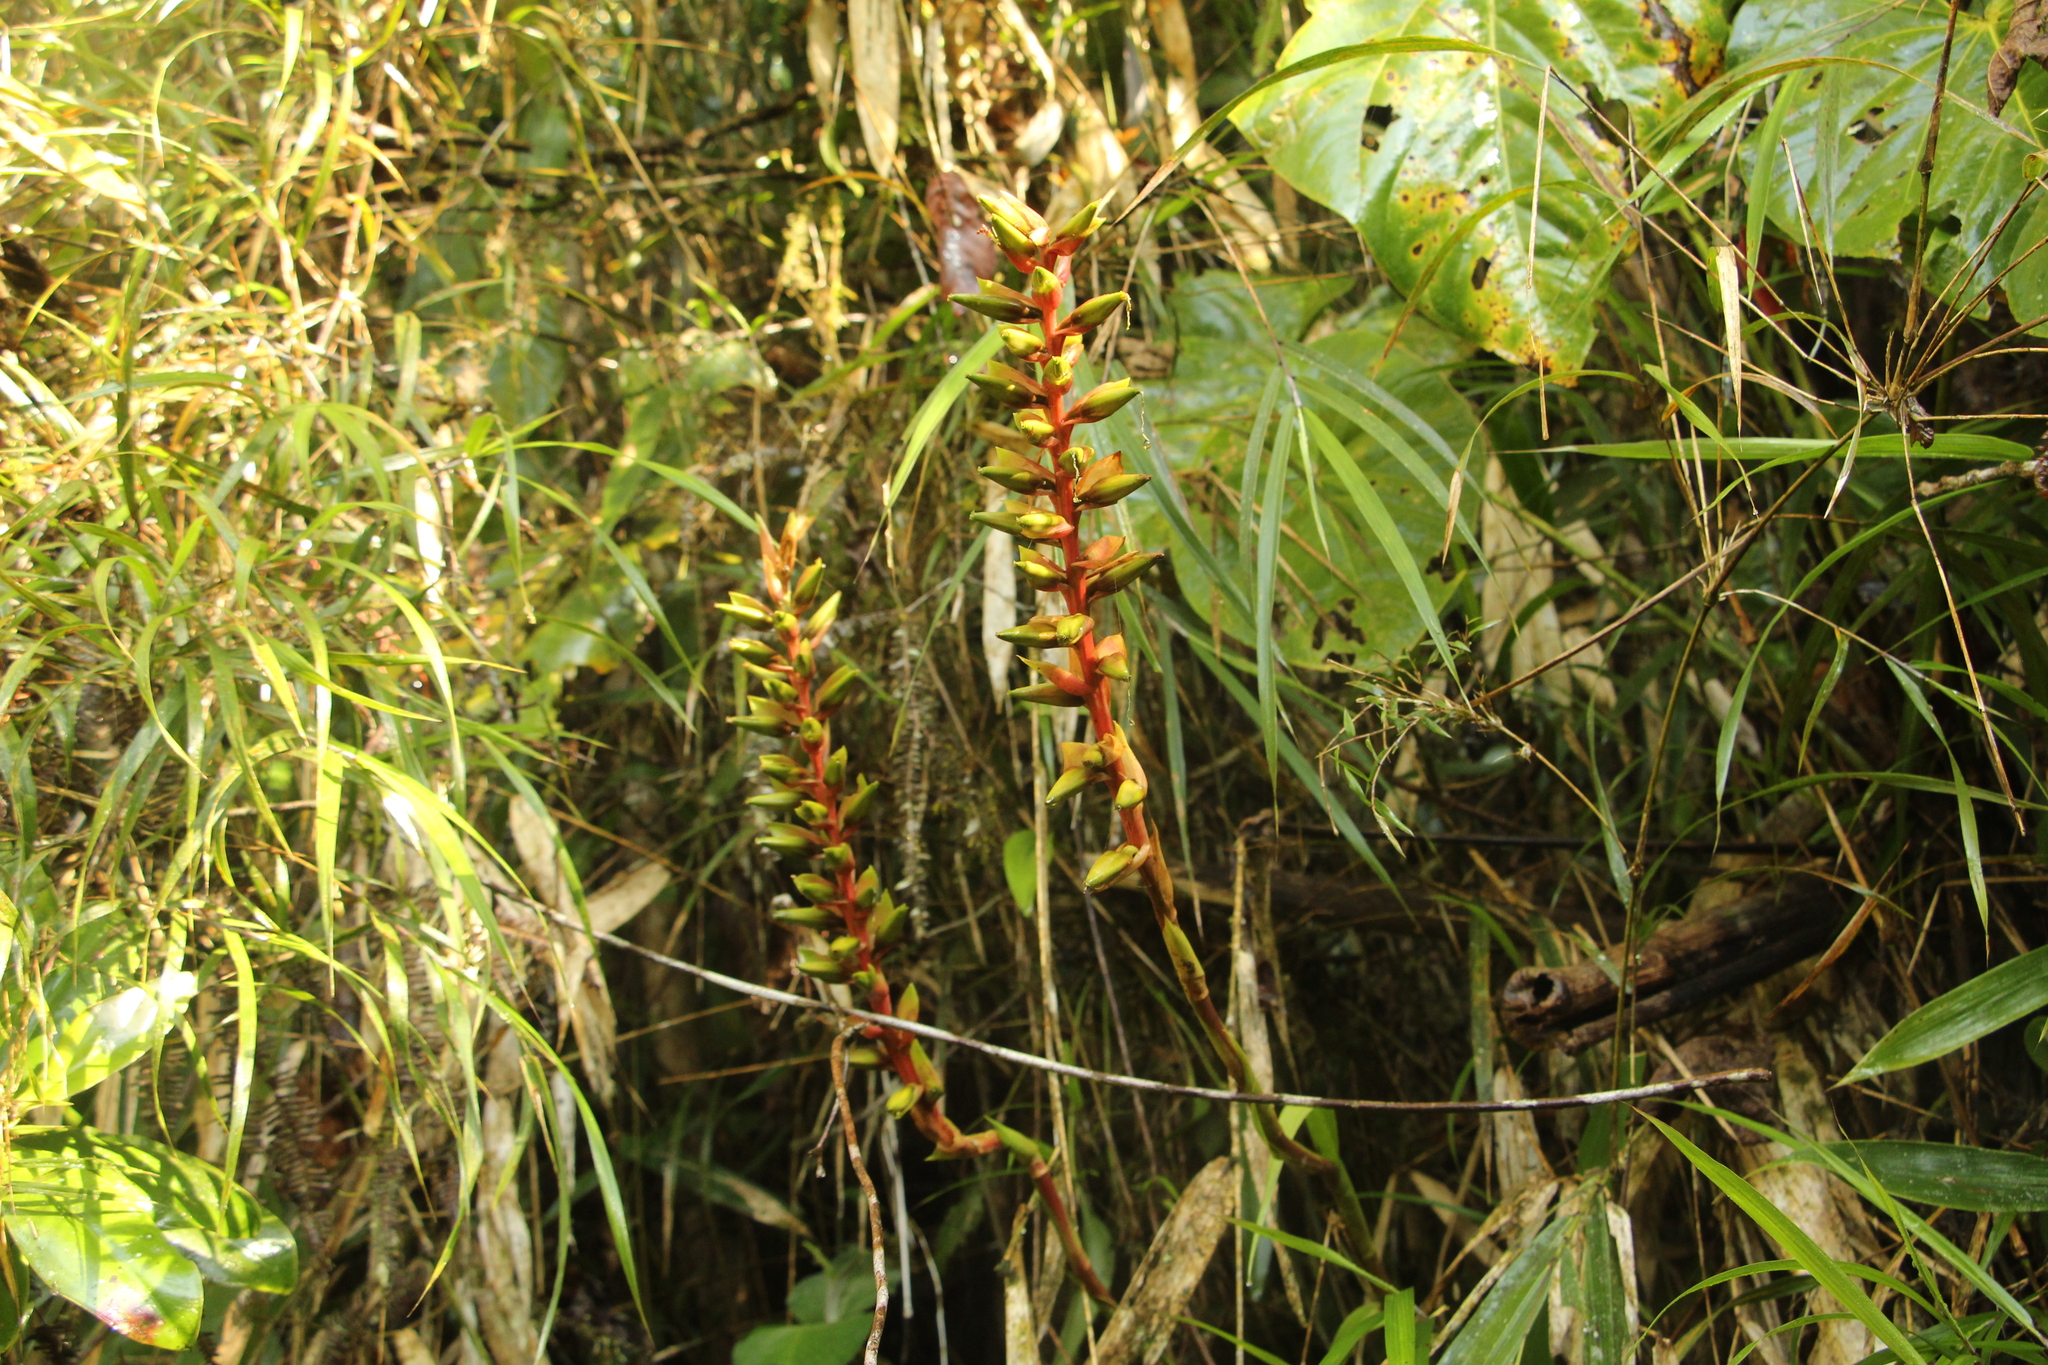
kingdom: Plantae
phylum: Tracheophyta
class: Liliopsida
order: Poales
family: Bromeliaceae
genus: Pitcairnia
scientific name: Pitcairnia maidifolia
